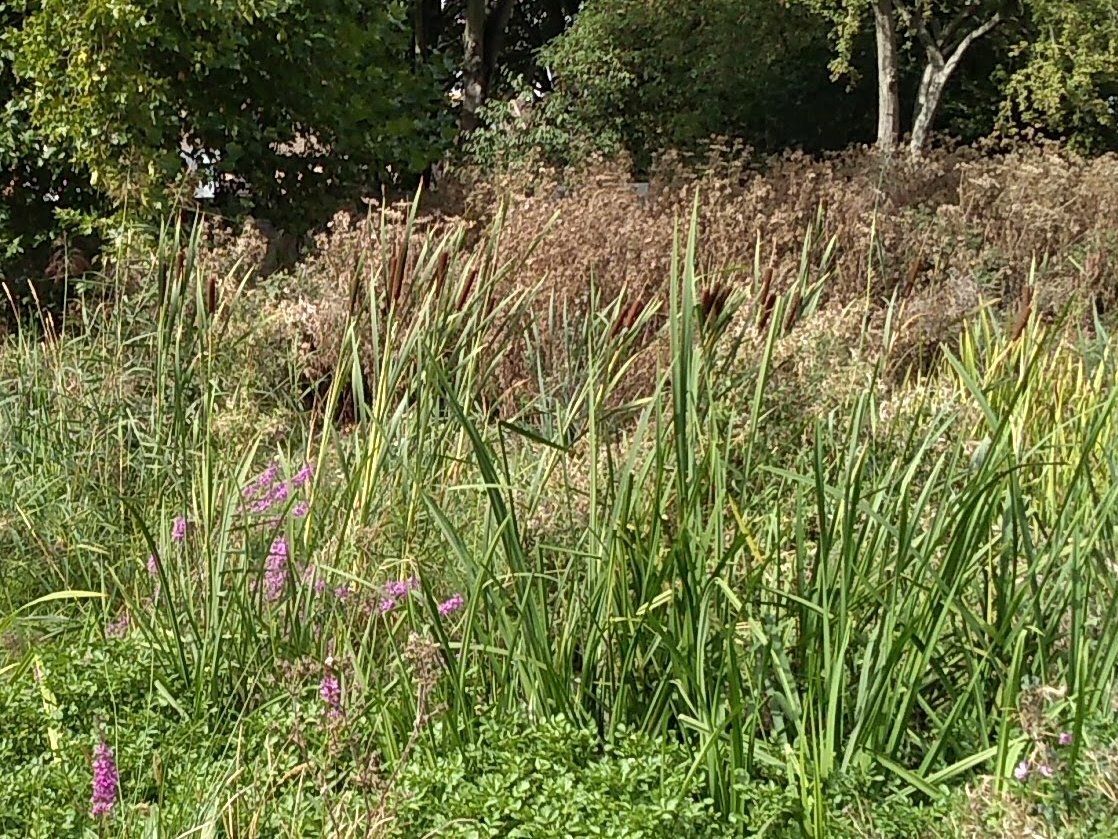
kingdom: Plantae
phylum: Tracheophyta
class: Liliopsida
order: Poales
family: Typhaceae
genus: Typha
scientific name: Typha latifolia
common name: Broadleaf cattail
